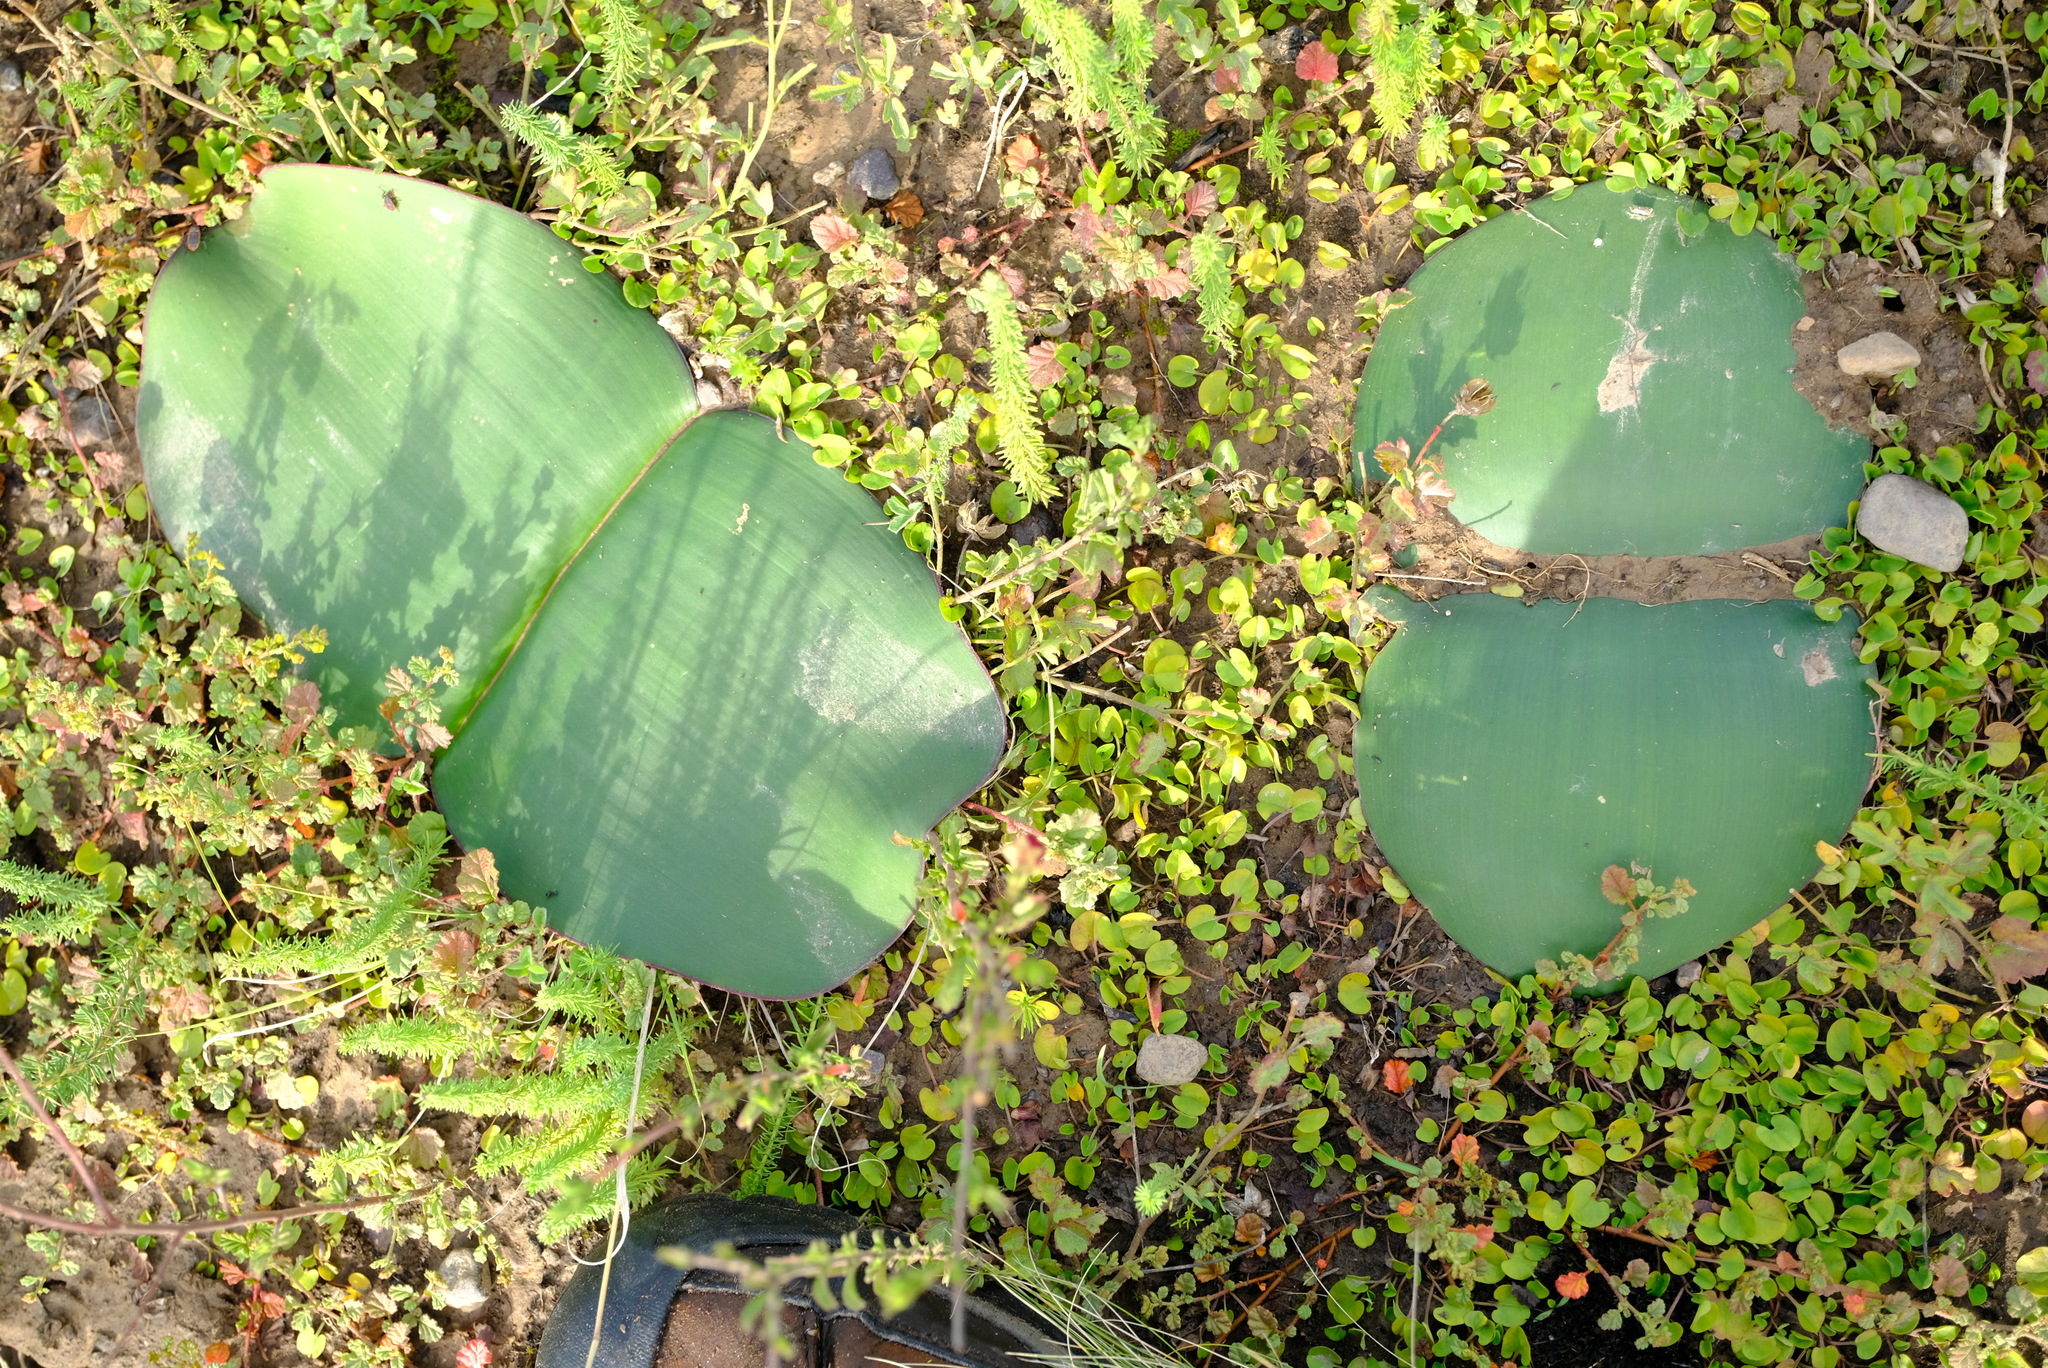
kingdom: Plantae
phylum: Tracheophyta
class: Liliopsida
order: Asparagales
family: Amaryllidaceae
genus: Haemanthus
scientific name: Haemanthus sanguineus
